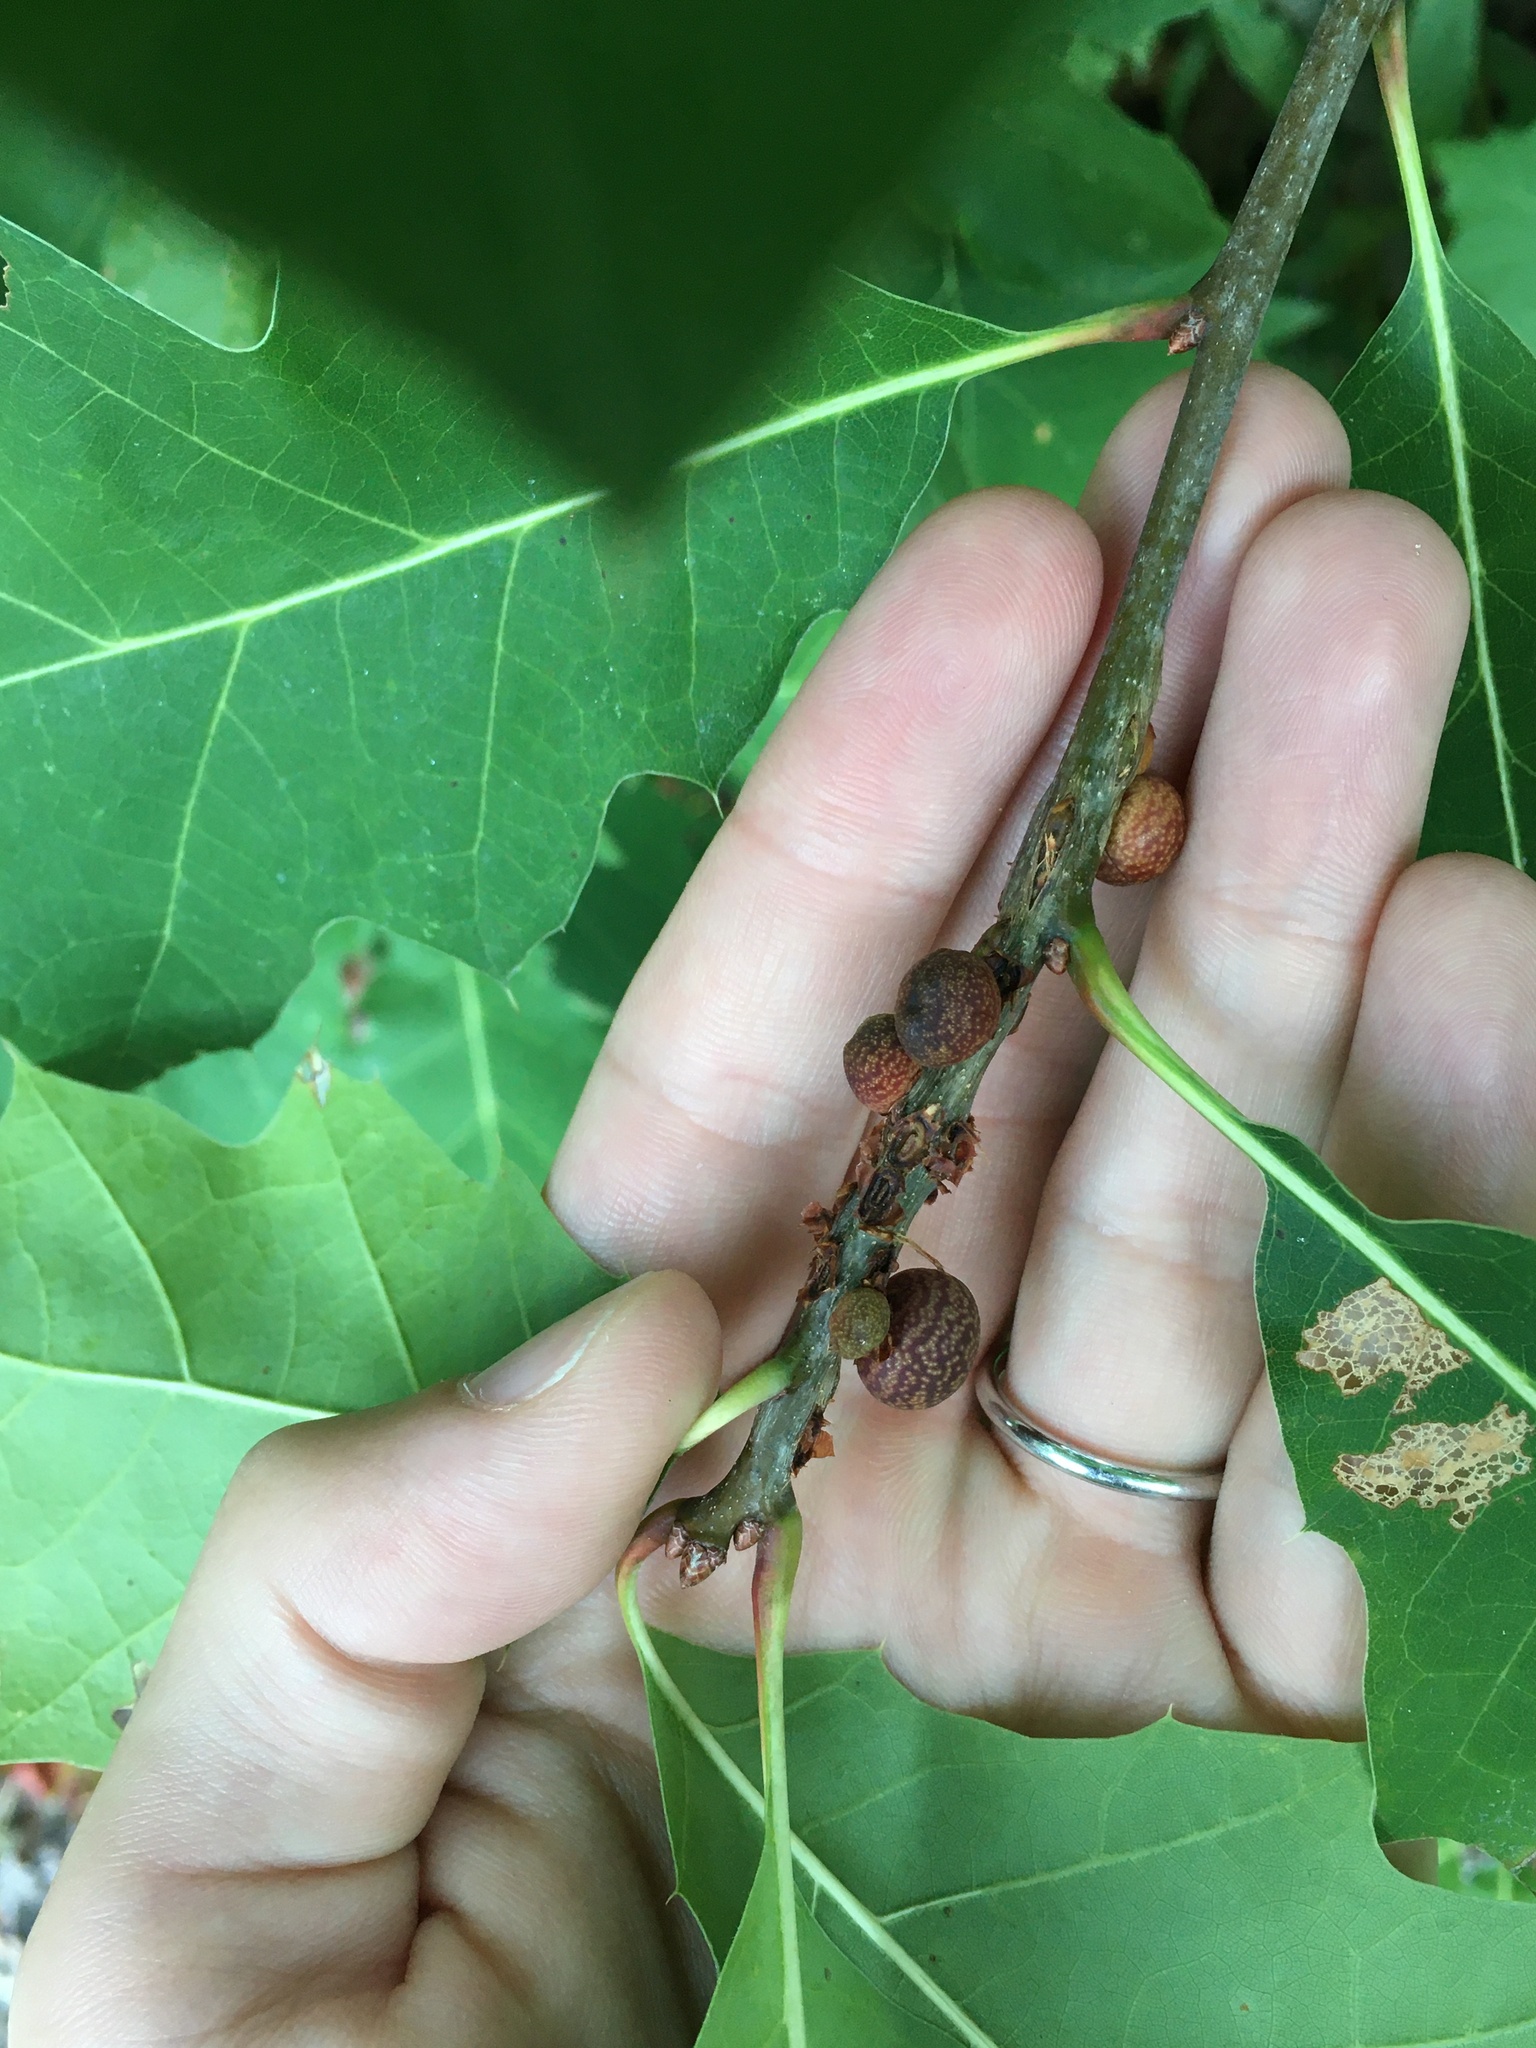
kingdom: Animalia
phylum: Arthropoda
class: Insecta
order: Hymenoptera
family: Cynipidae
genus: Kokkocynips
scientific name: Kokkocynips imbricariae
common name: Banded bullet gall wasp
